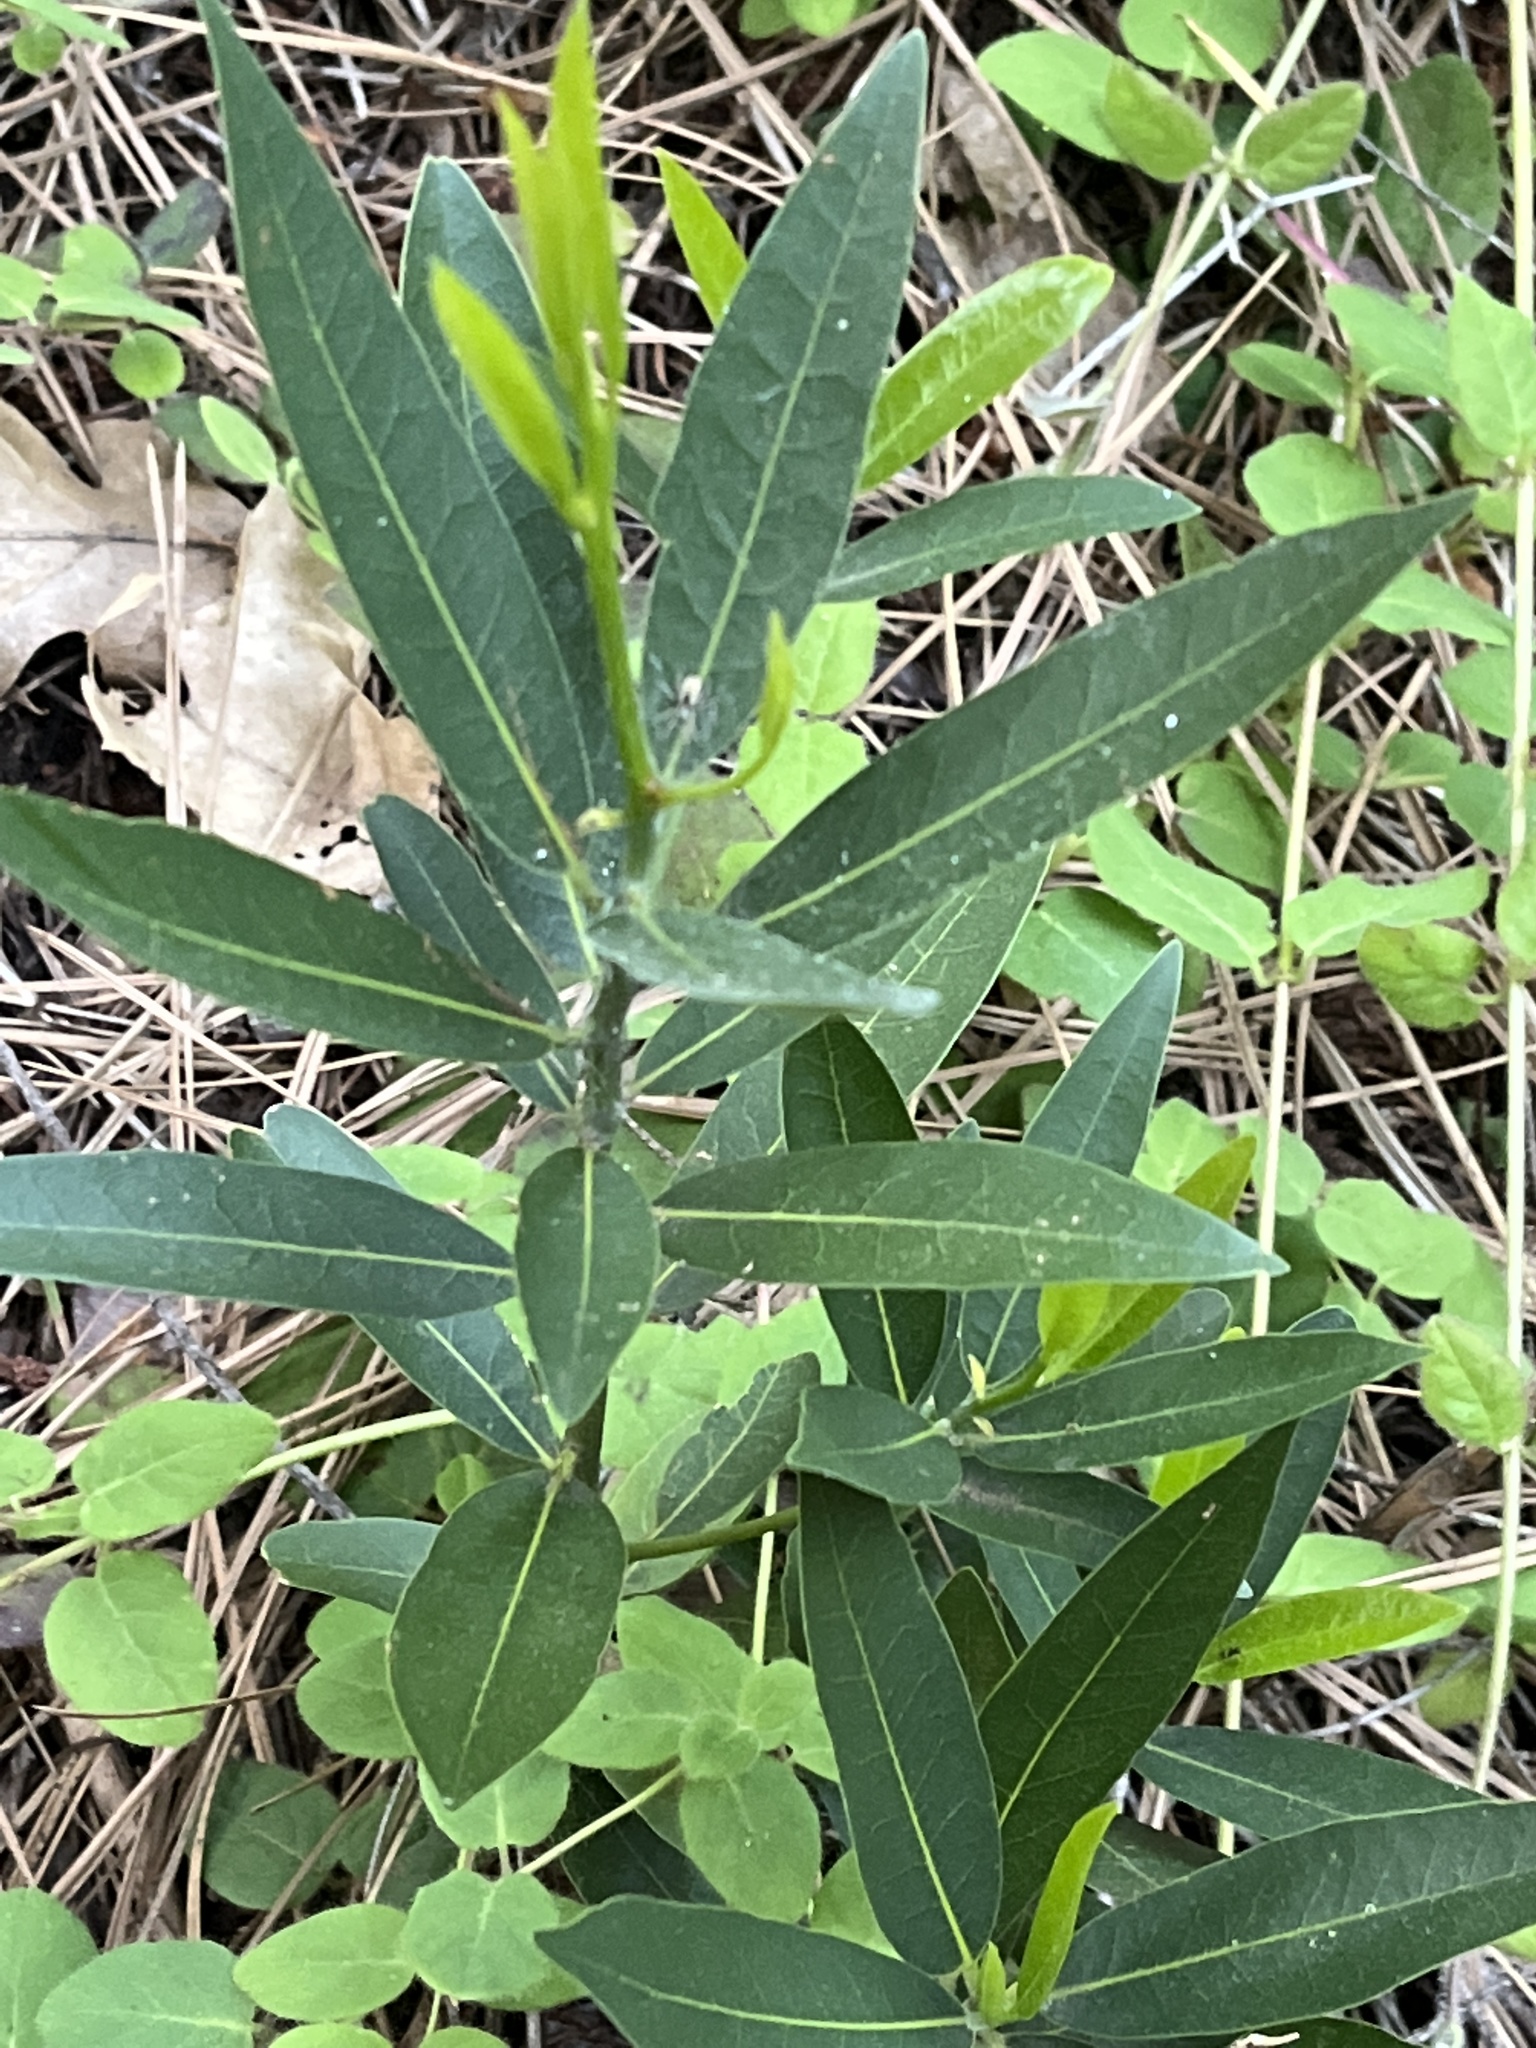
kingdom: Plantae
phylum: Tracheophyta
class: Magnoliopsida
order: Laurales
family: Lauraceae
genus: Umbellularia
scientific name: Umbellularia californica
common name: California bay
